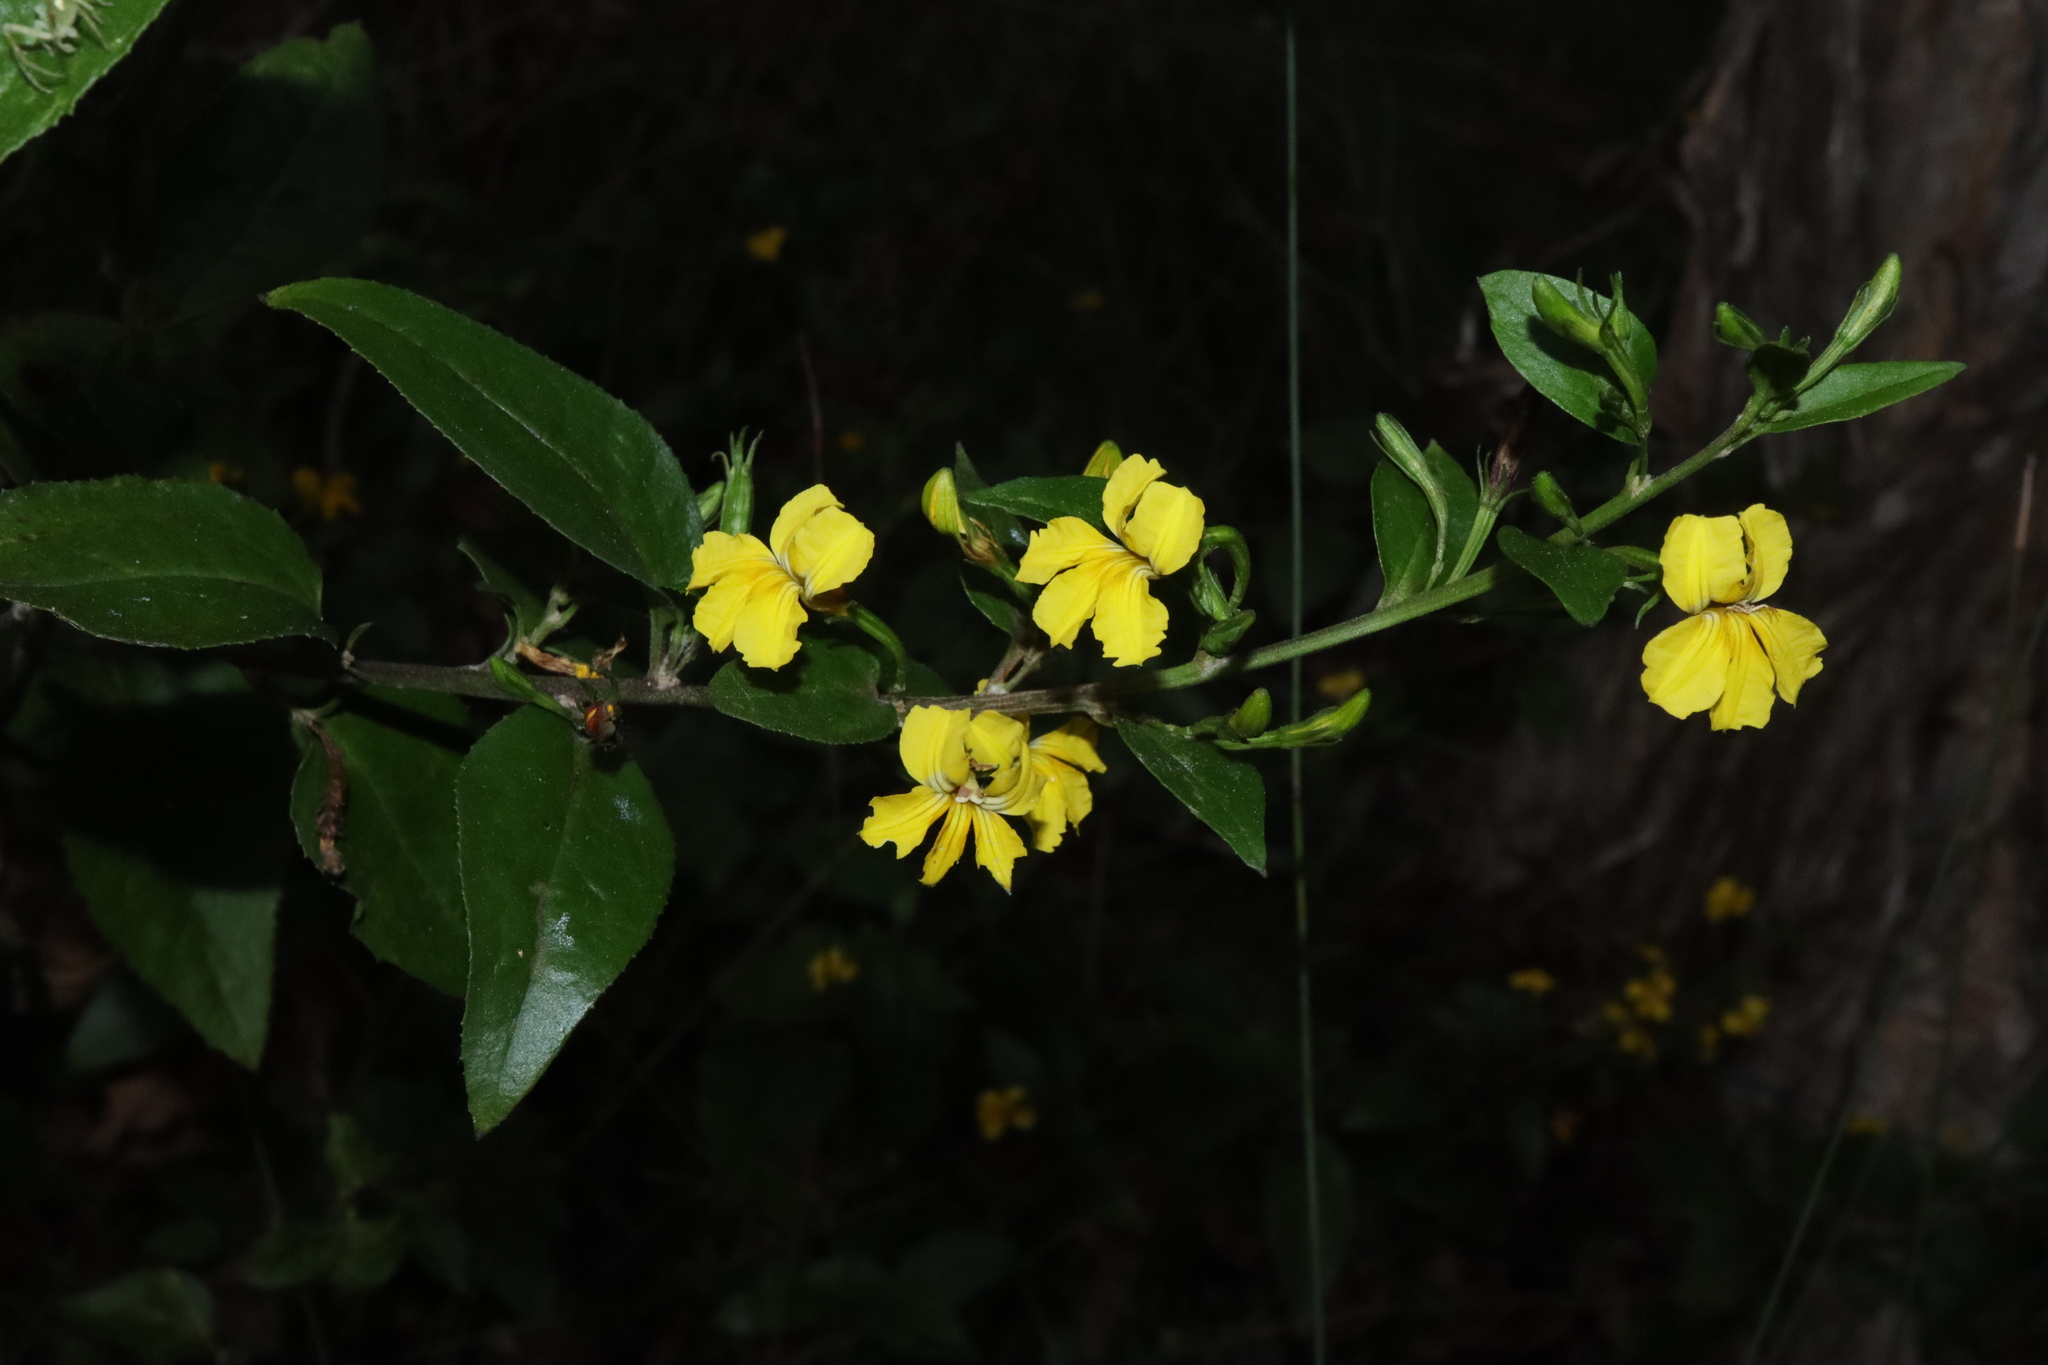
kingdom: Plantae
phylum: Tracheophyta
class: Magnoliopsida
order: Asterales
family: Goodeniaceae
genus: Goodenia
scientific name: Goodenia ovata
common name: Hop goodenia
